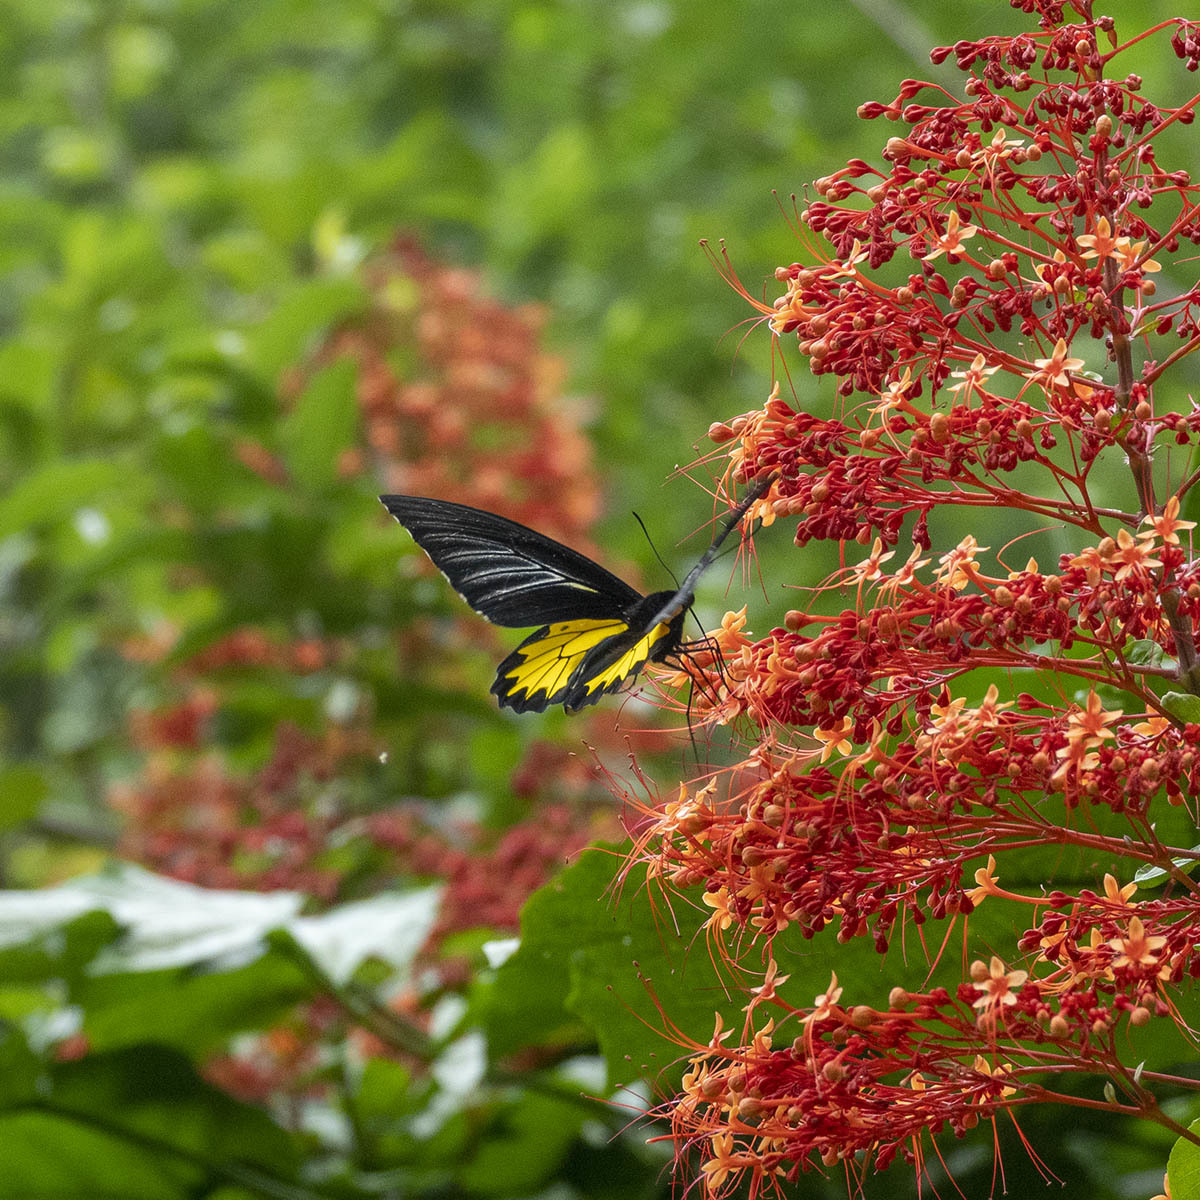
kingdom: Animalia
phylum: Arthropoda
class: Insecta
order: Lepidoptera
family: Papilionidae
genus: Troides
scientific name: Troides minos
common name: Malabar birdwing
